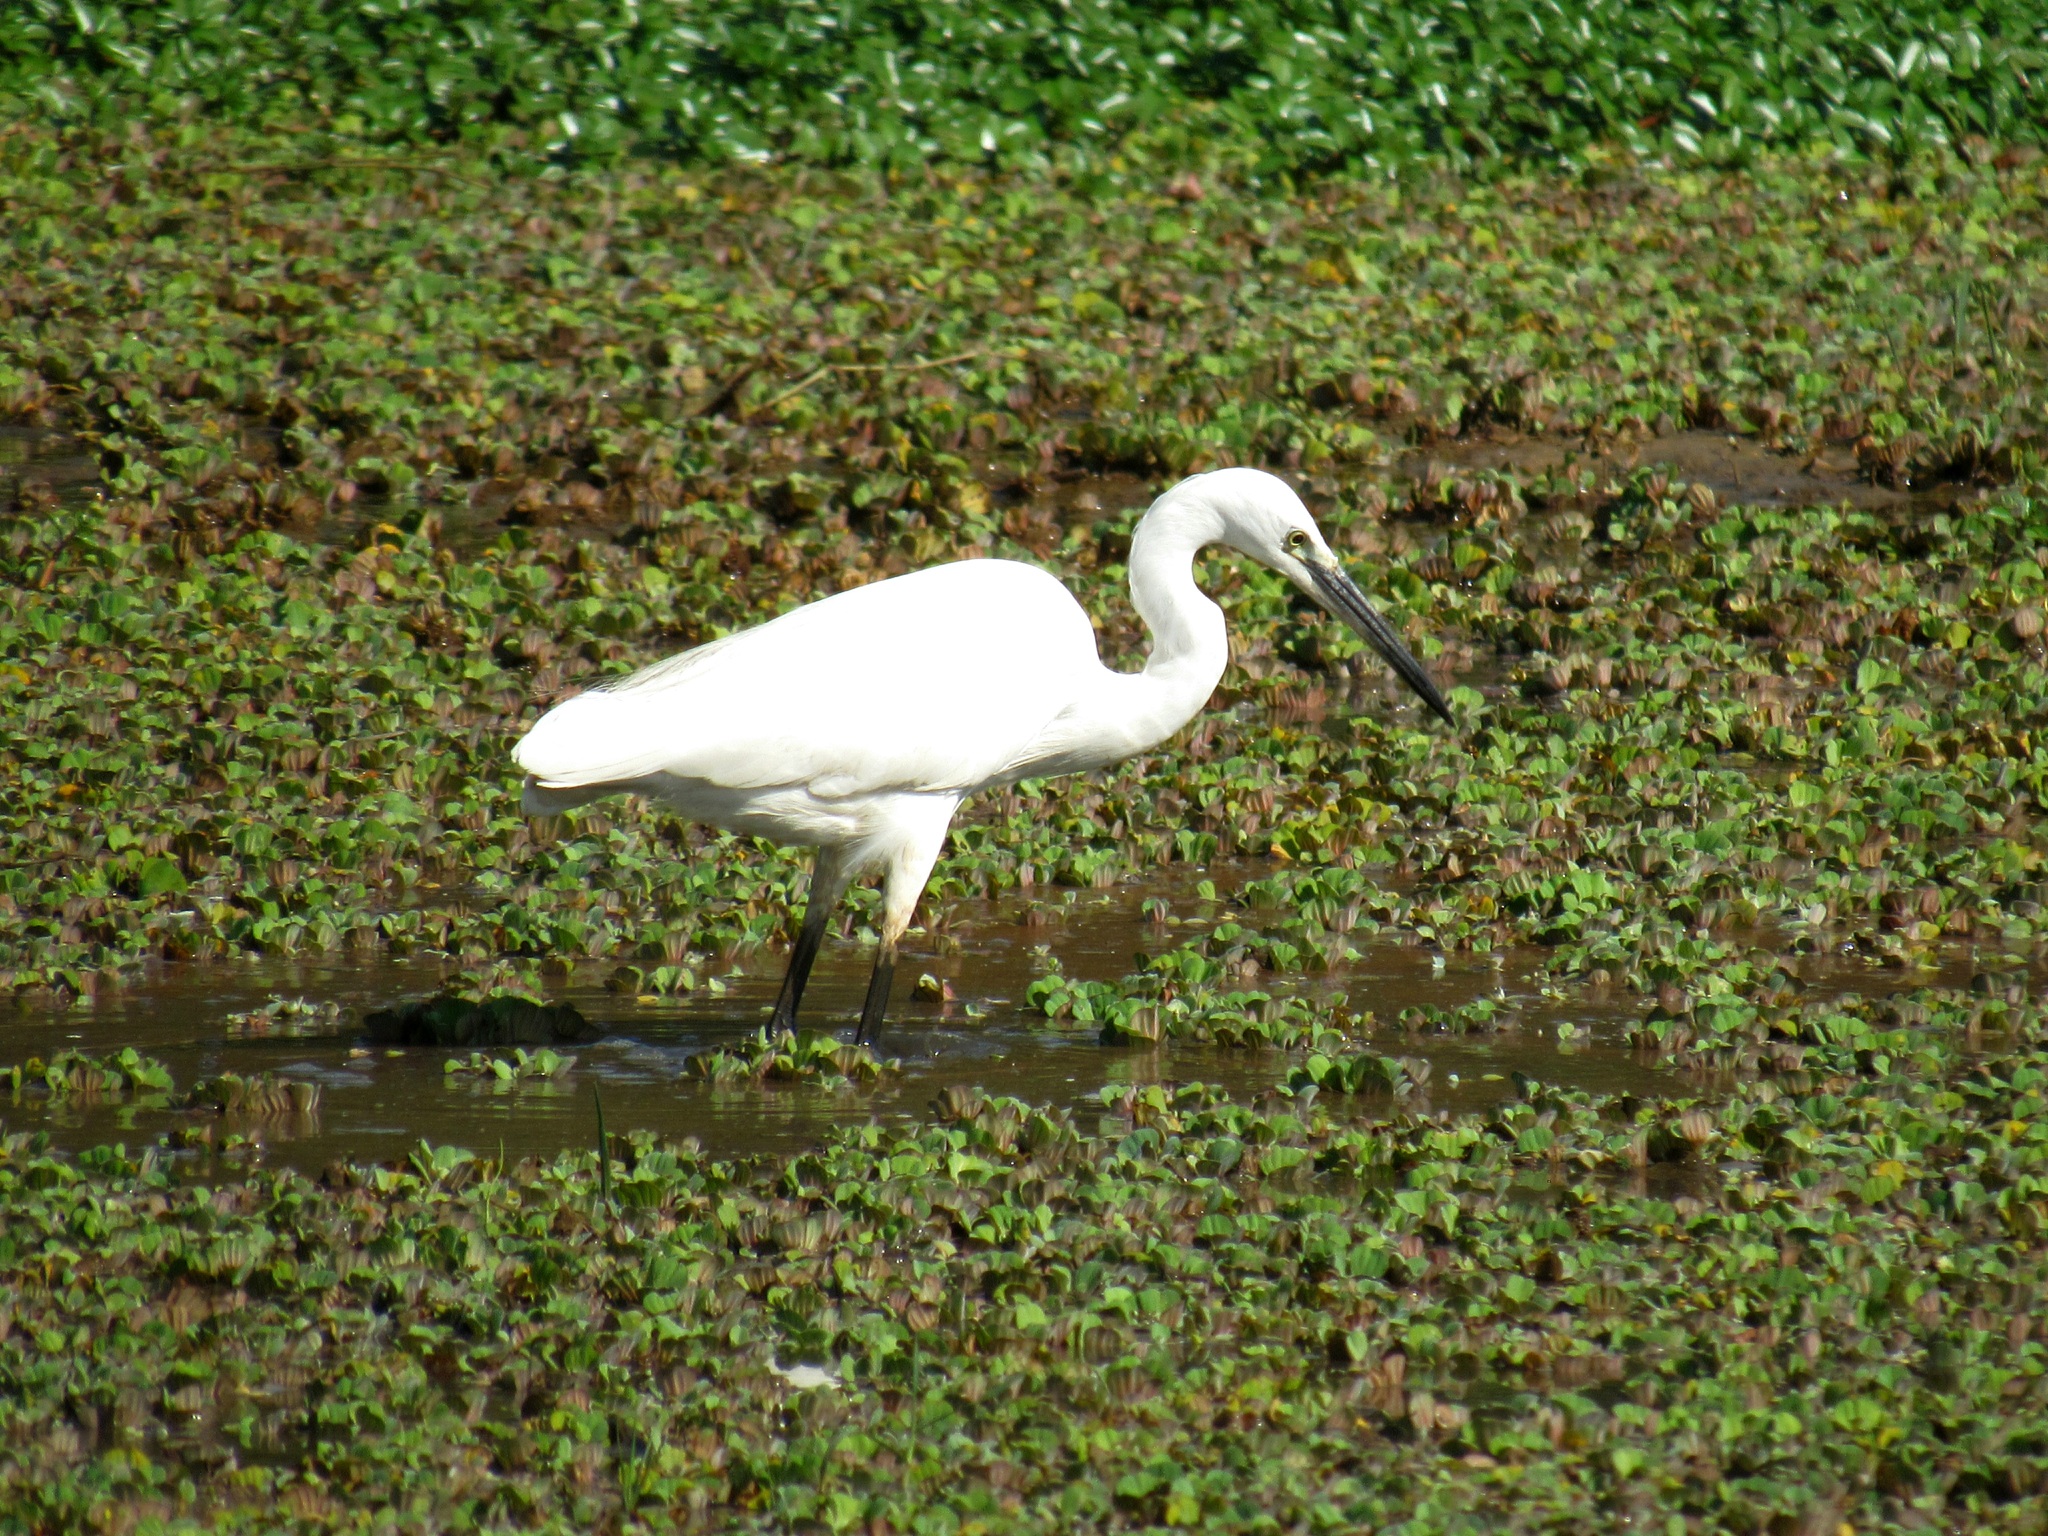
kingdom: Animalia
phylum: Chordata
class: Aves
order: Pelecaniformes
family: Ardeidae
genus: Egretta
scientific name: Egretta garzetta
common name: Little egret
